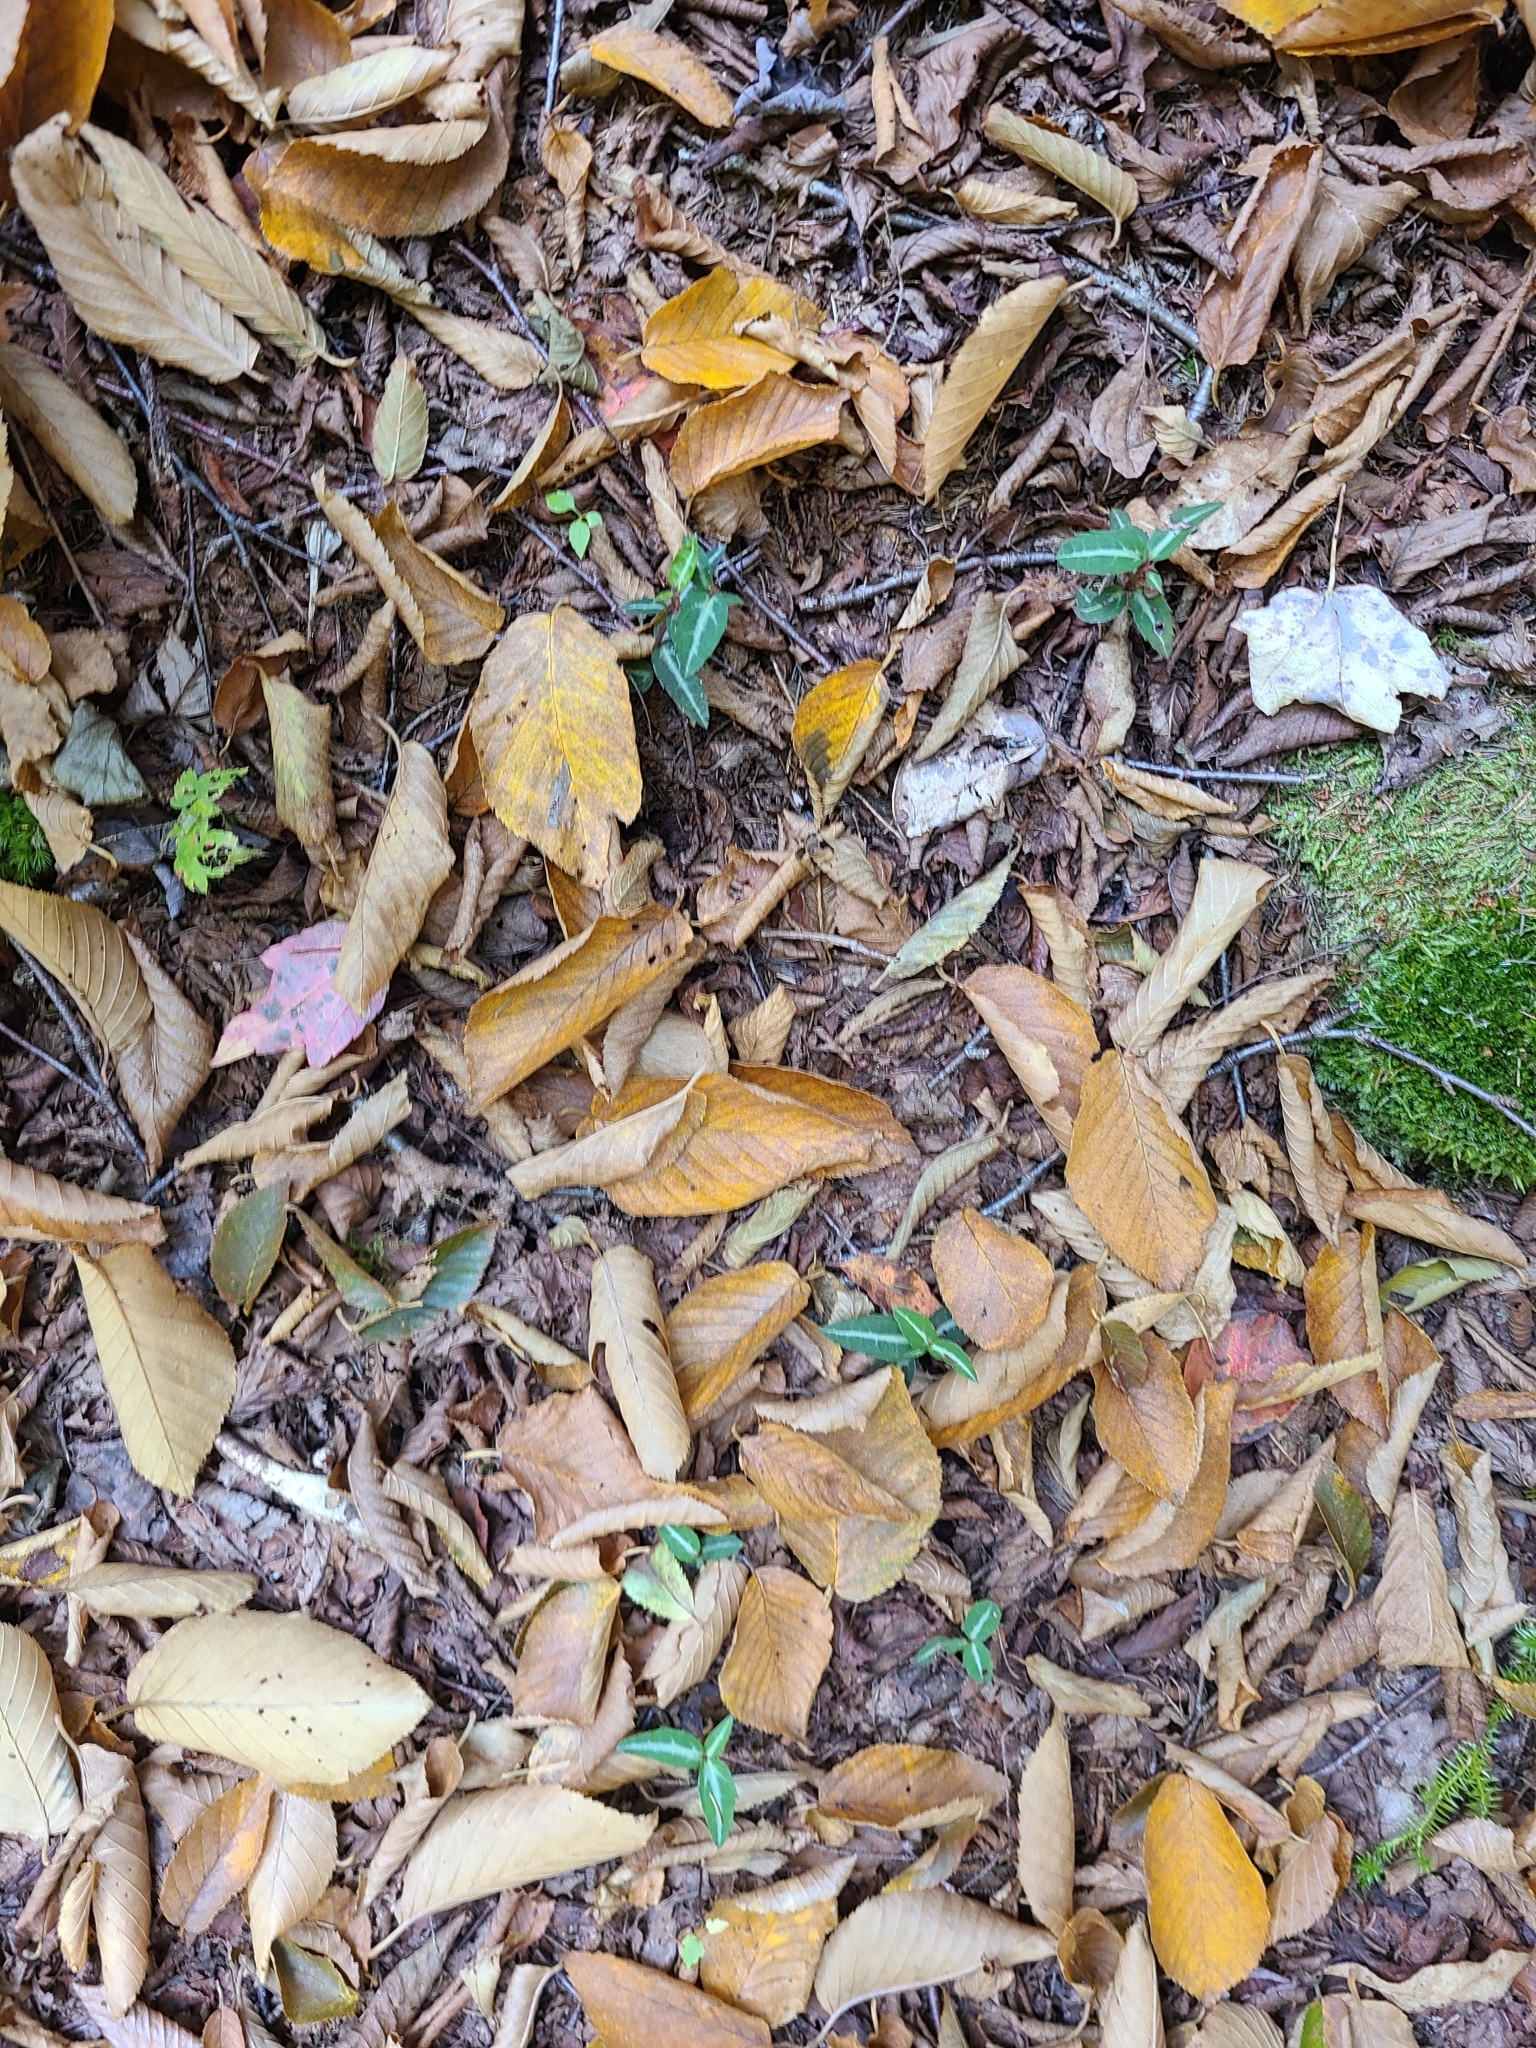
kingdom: Plantae
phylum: Tracheophyta
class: Magnoliopsida
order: Ericales
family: Ericaceae
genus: Chimaphila
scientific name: Chimaphila maculata
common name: Spotted pipsissewa
